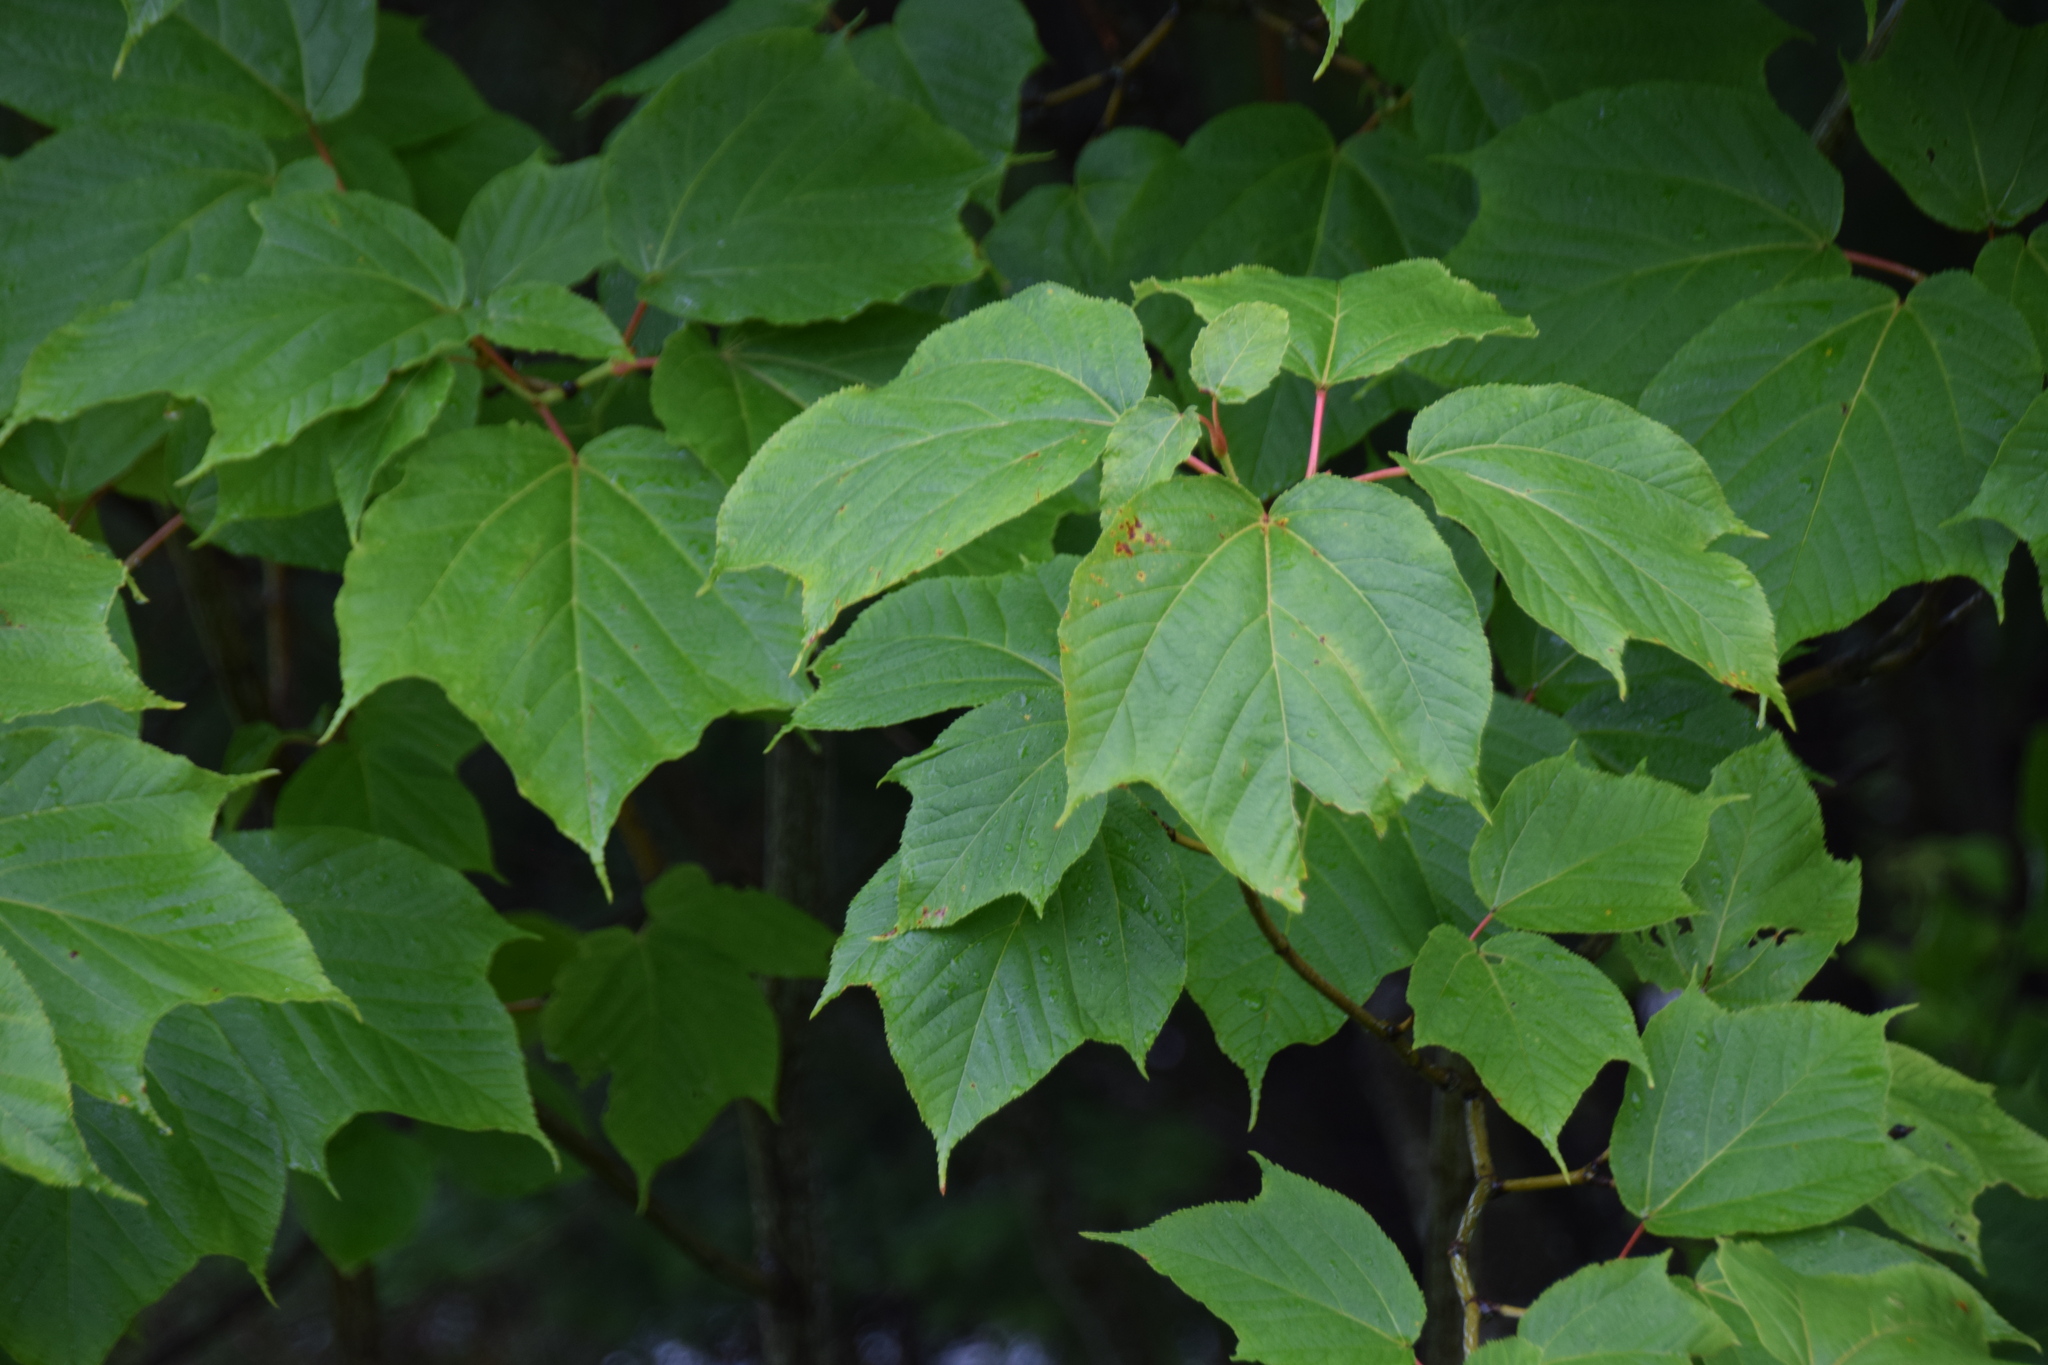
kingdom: Plantae
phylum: Tracheophyta
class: Magnoliopsida
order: Sapindales
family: Sapindaceae
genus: Acer
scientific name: Acer pensylvanicum
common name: Moosewood
